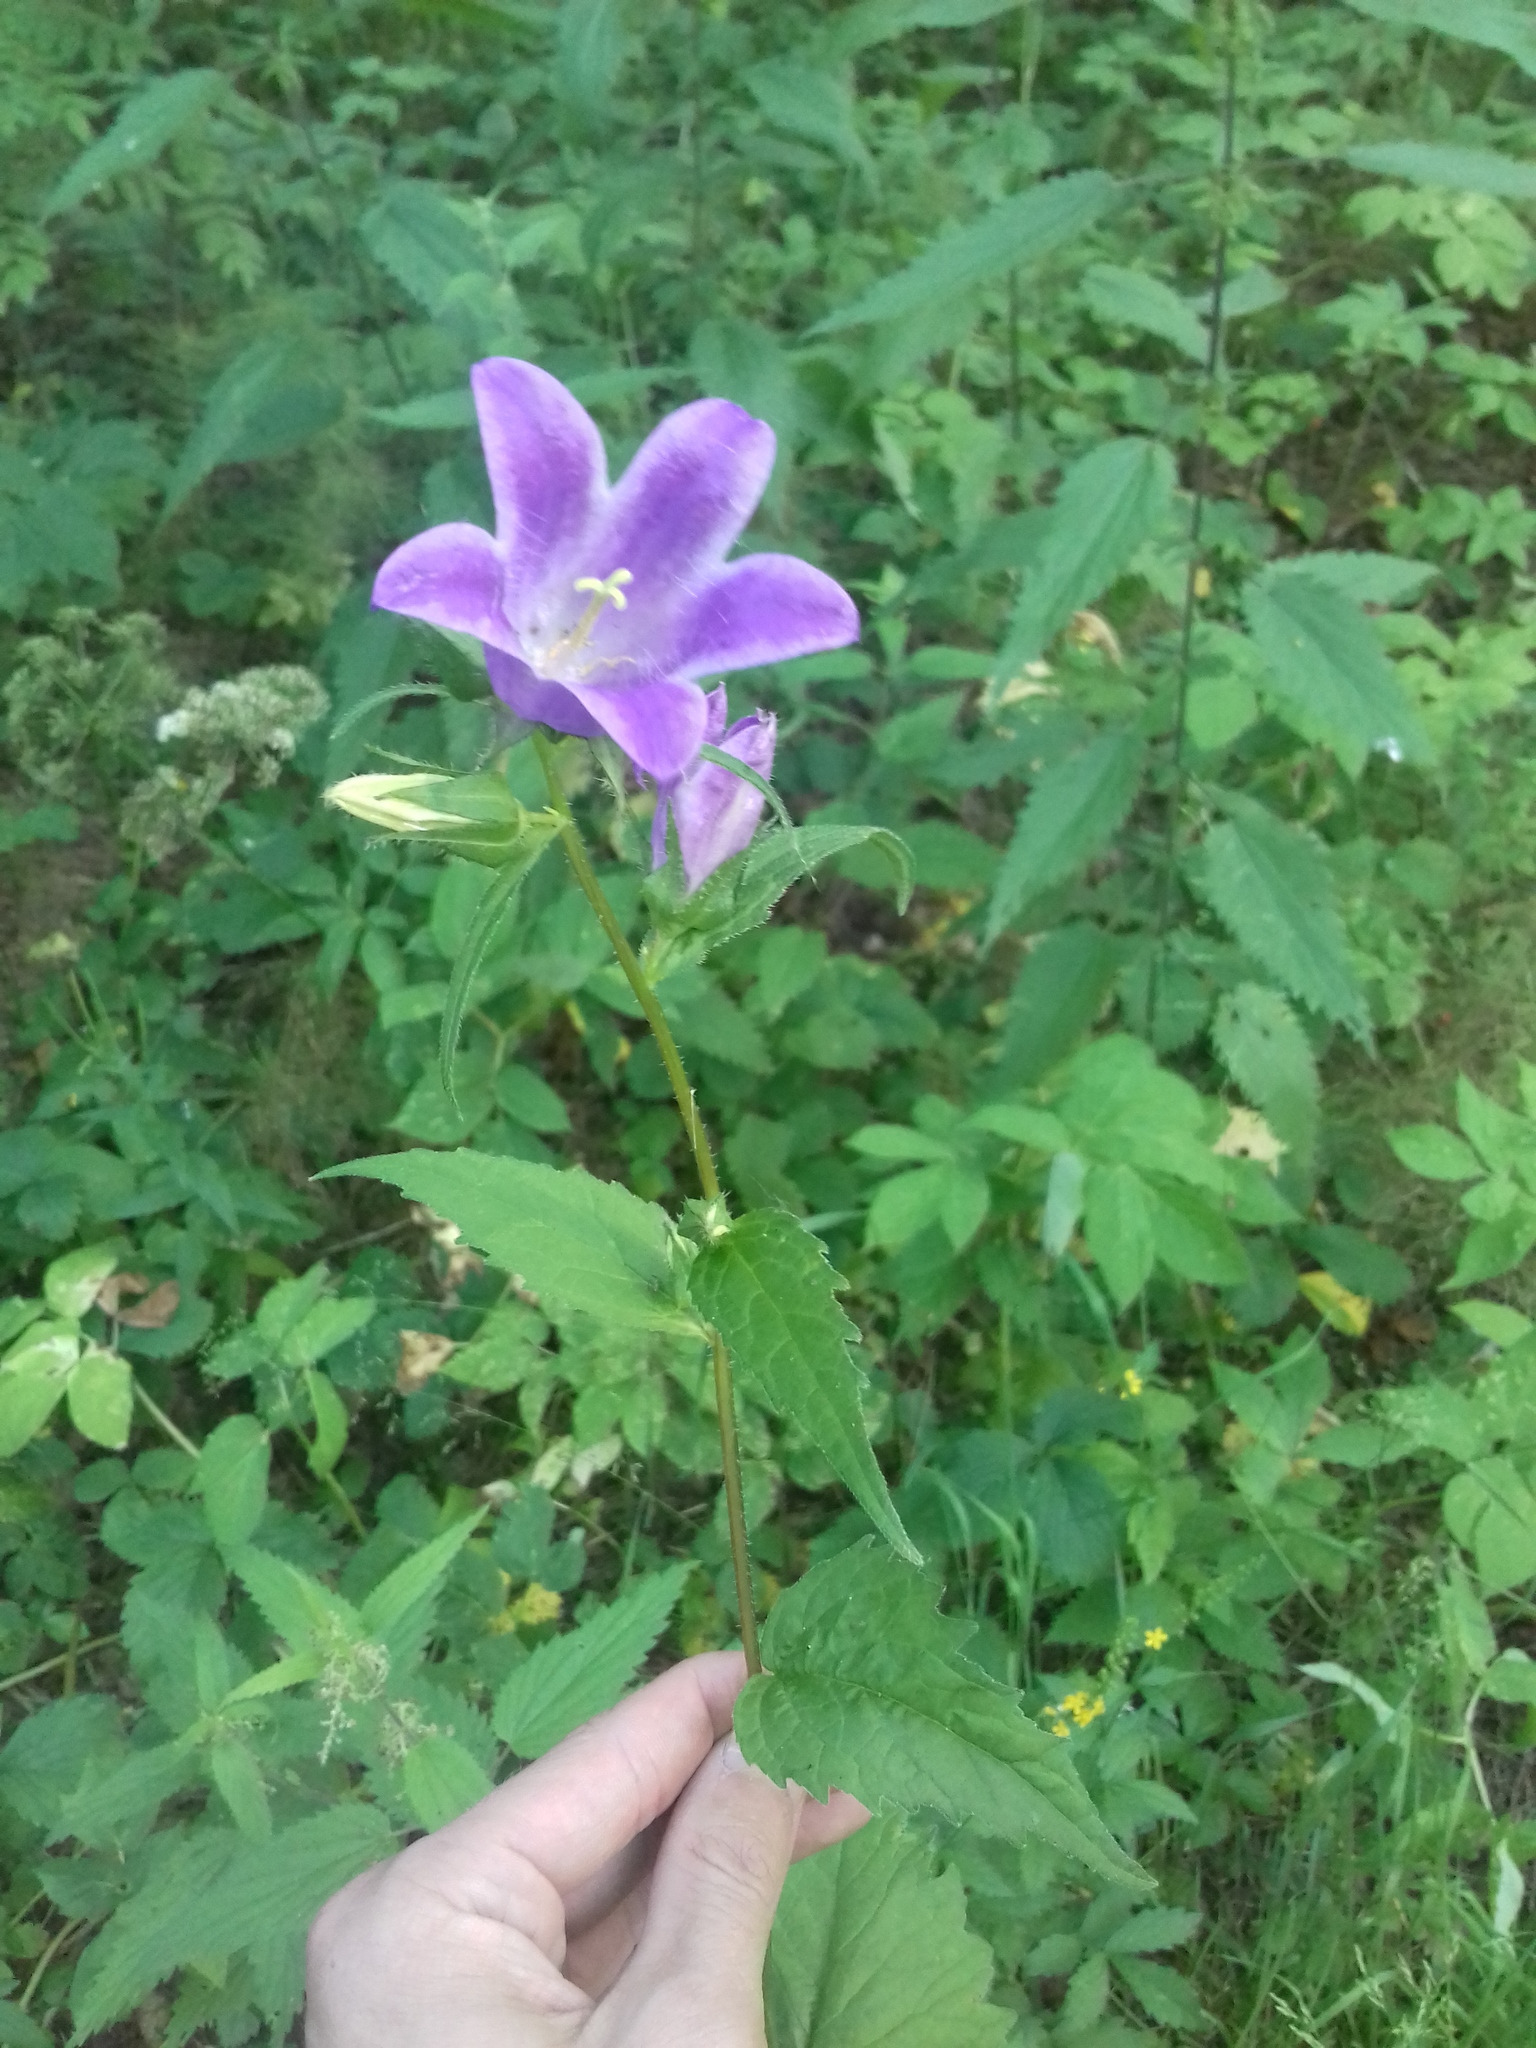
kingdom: Plantae
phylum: Tracheophyta
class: Magnoliopsida
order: Asterales
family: Campanulaceae
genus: Campanula
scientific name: Campanula trachelium
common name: Nettle-leaved bellflower
